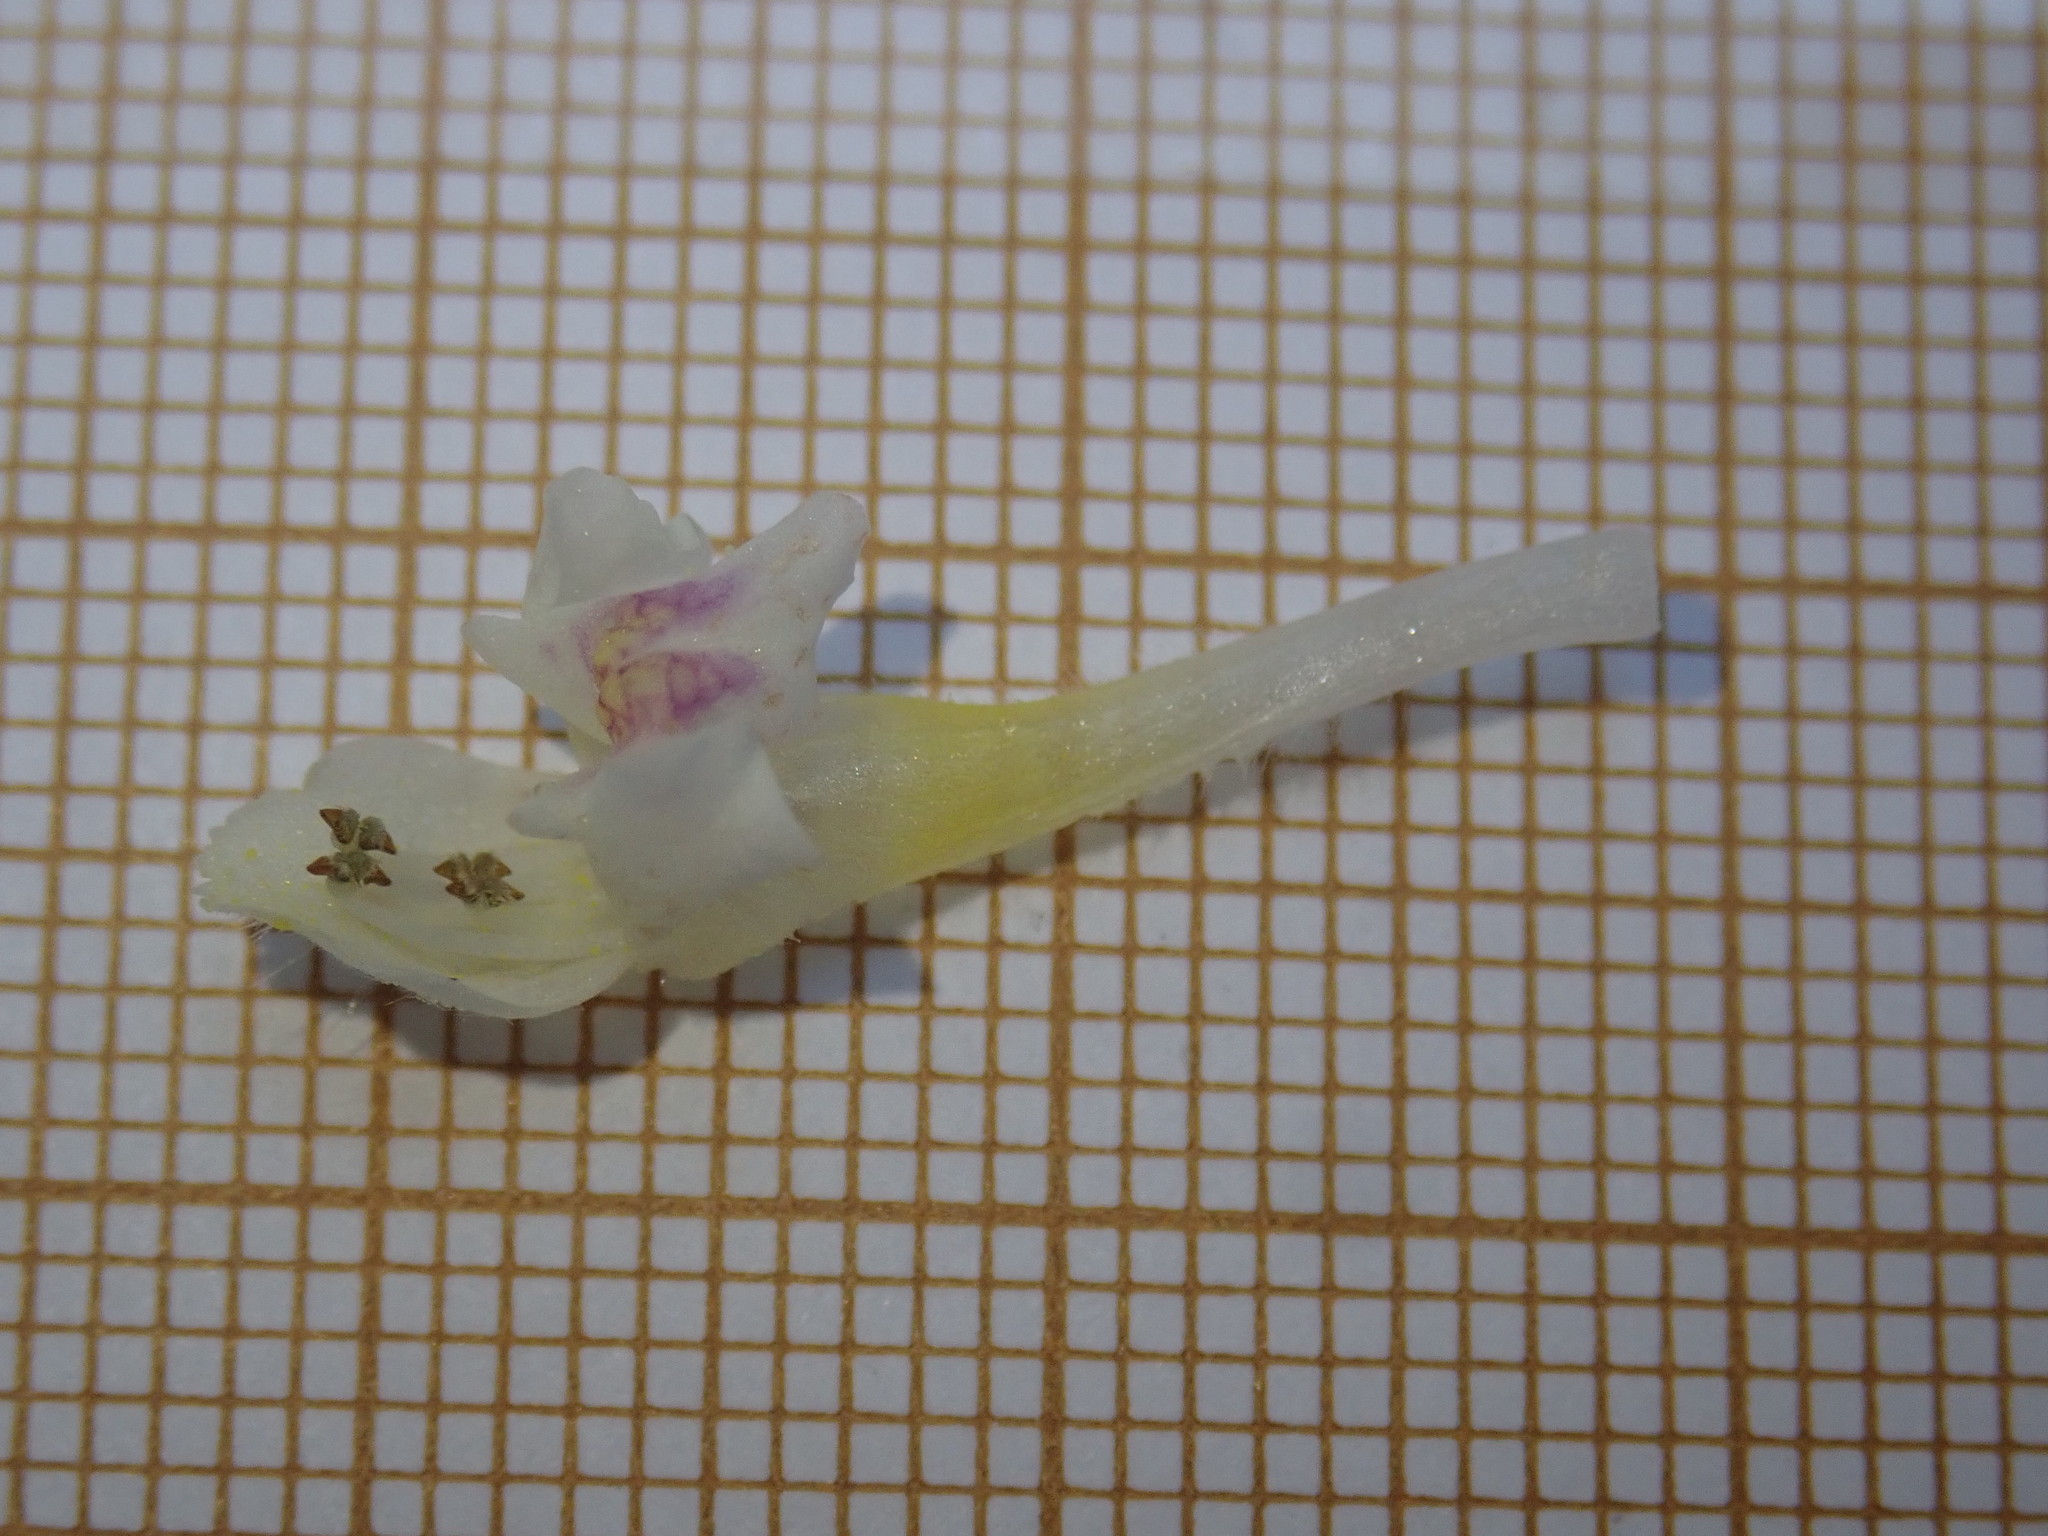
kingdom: Plantae
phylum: Tracheophyta
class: Magnoliopsida
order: Lamiales
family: Lamiaceae
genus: Galeopsis
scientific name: Galeopsis tetrahit
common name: Common hemp-nettle
